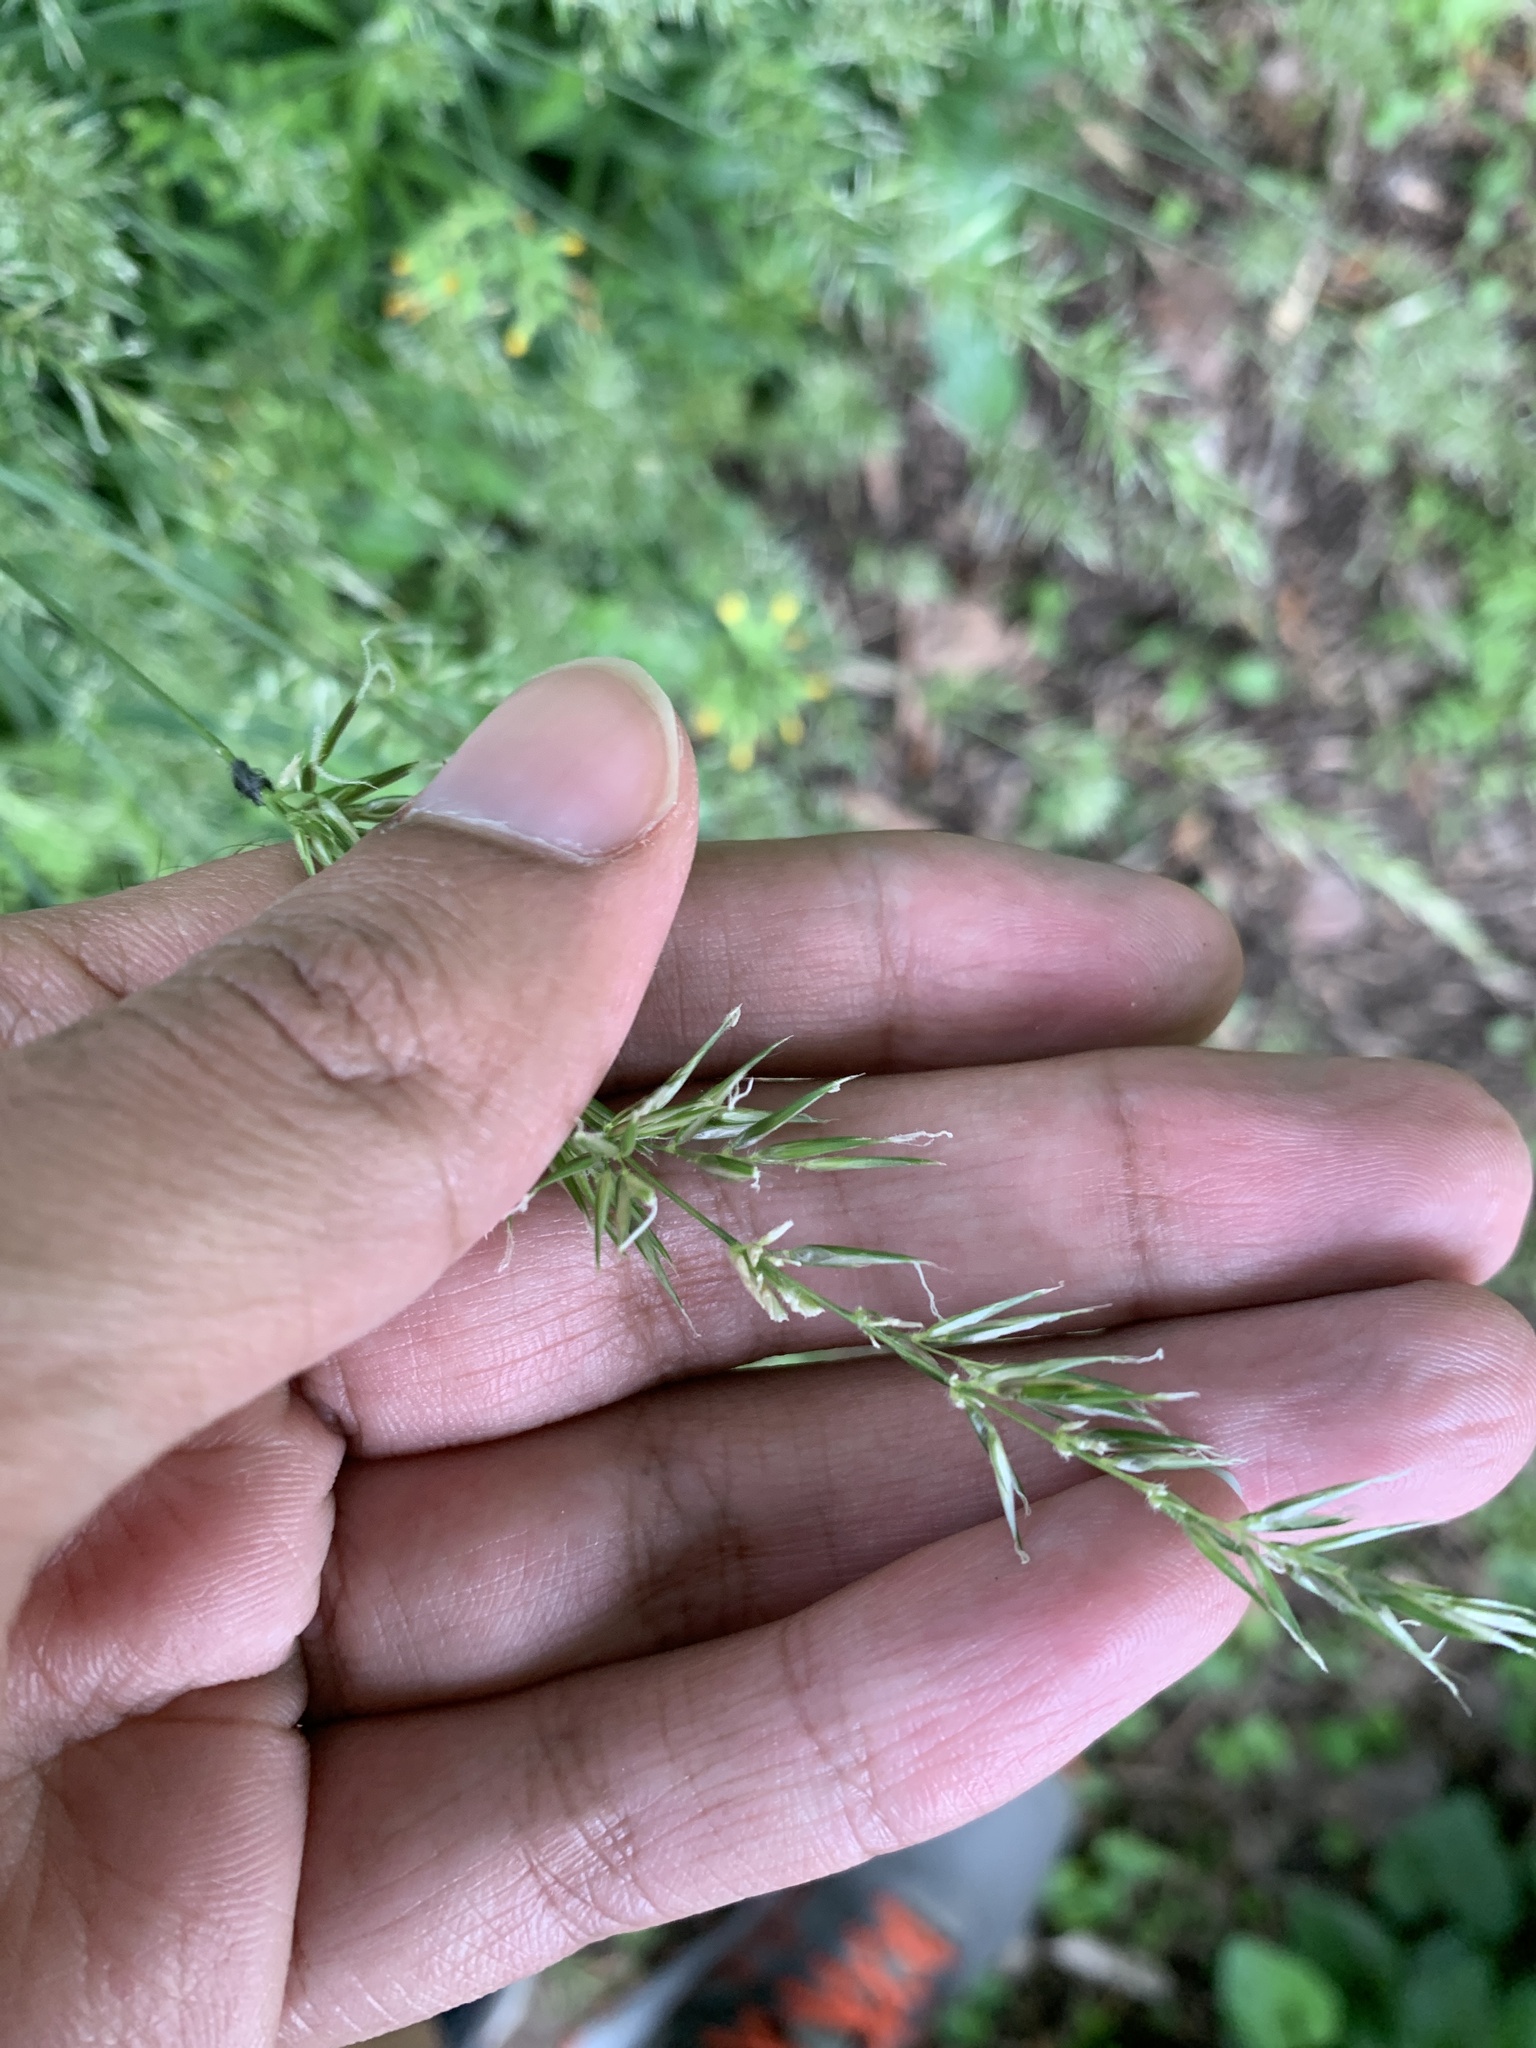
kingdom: Plantae
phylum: Tracheophyta
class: Liliopsida
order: Poales
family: Poaceae
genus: Anthoxanthum
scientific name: Anthoxanthum odoratum
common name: Sweet vernalgrass
